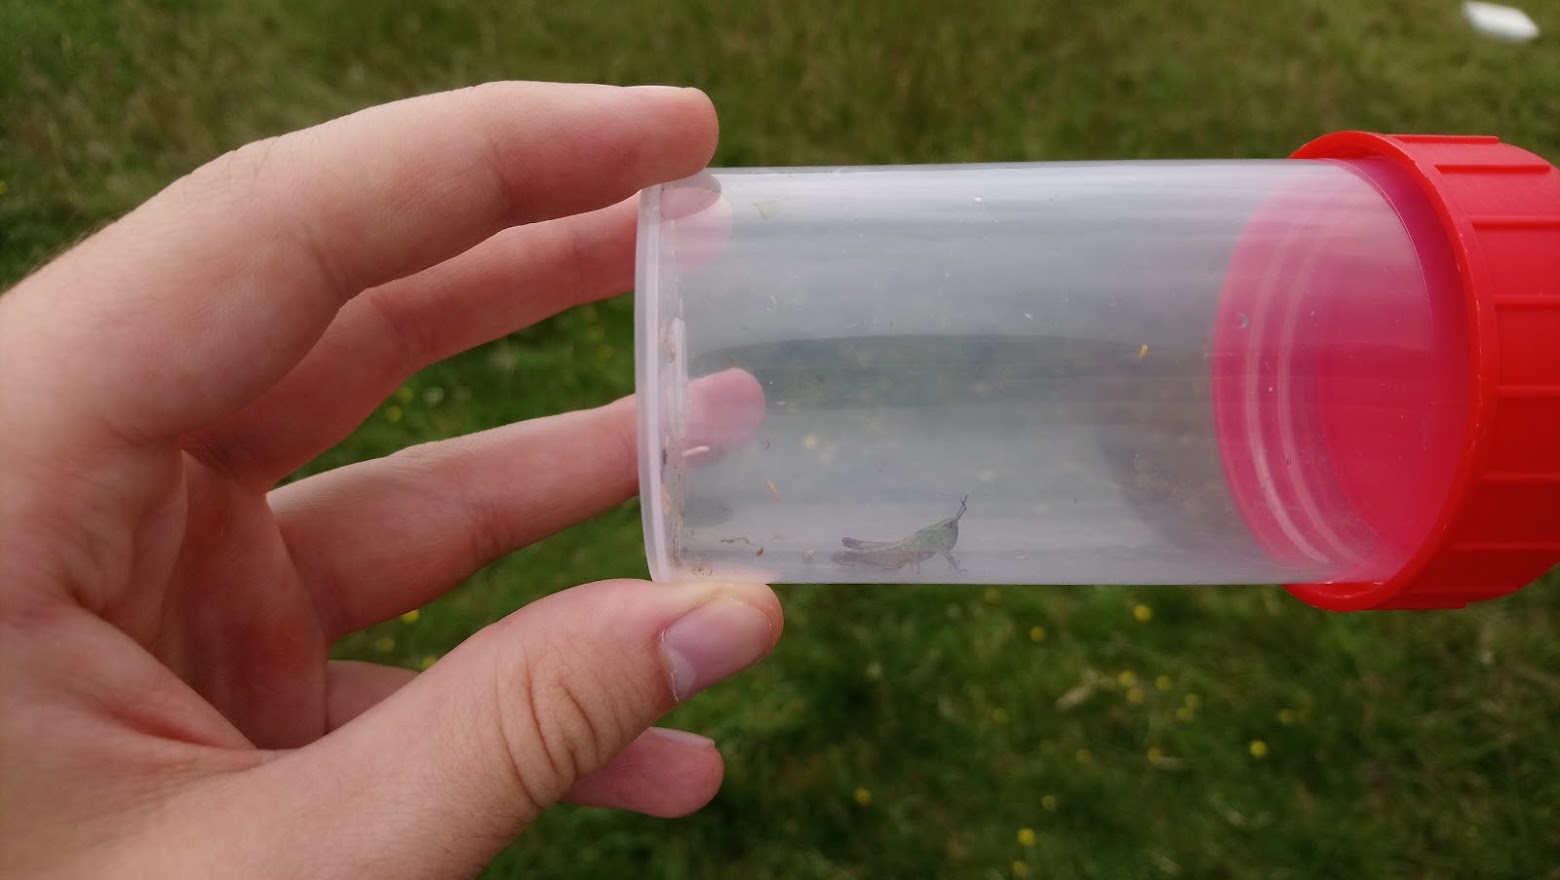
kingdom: Animalia
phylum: Arthropoda
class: Insecta
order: Orthoptera
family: Acrididae
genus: Pseudochorthippus
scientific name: Pseudochorthippus parallelus
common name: Meadow grasshopper
